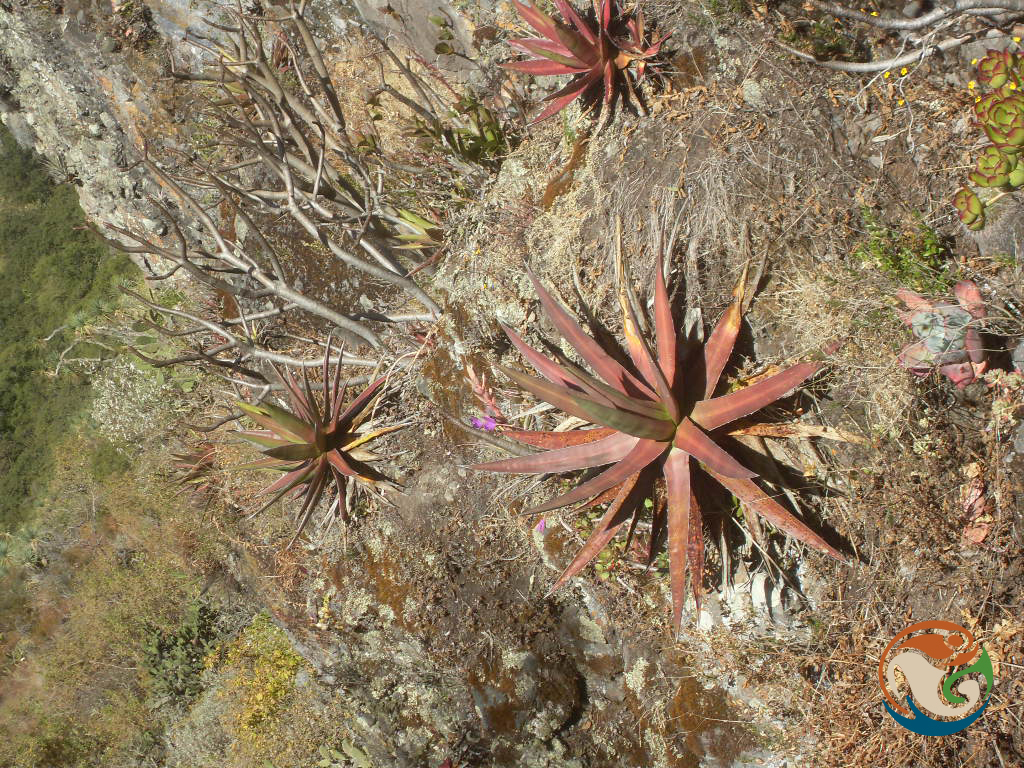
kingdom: Plantae
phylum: Tracheophyta
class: Liliopsida
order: Asparagales
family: Asparagaceae
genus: Agave
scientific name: Agave angustiarum
